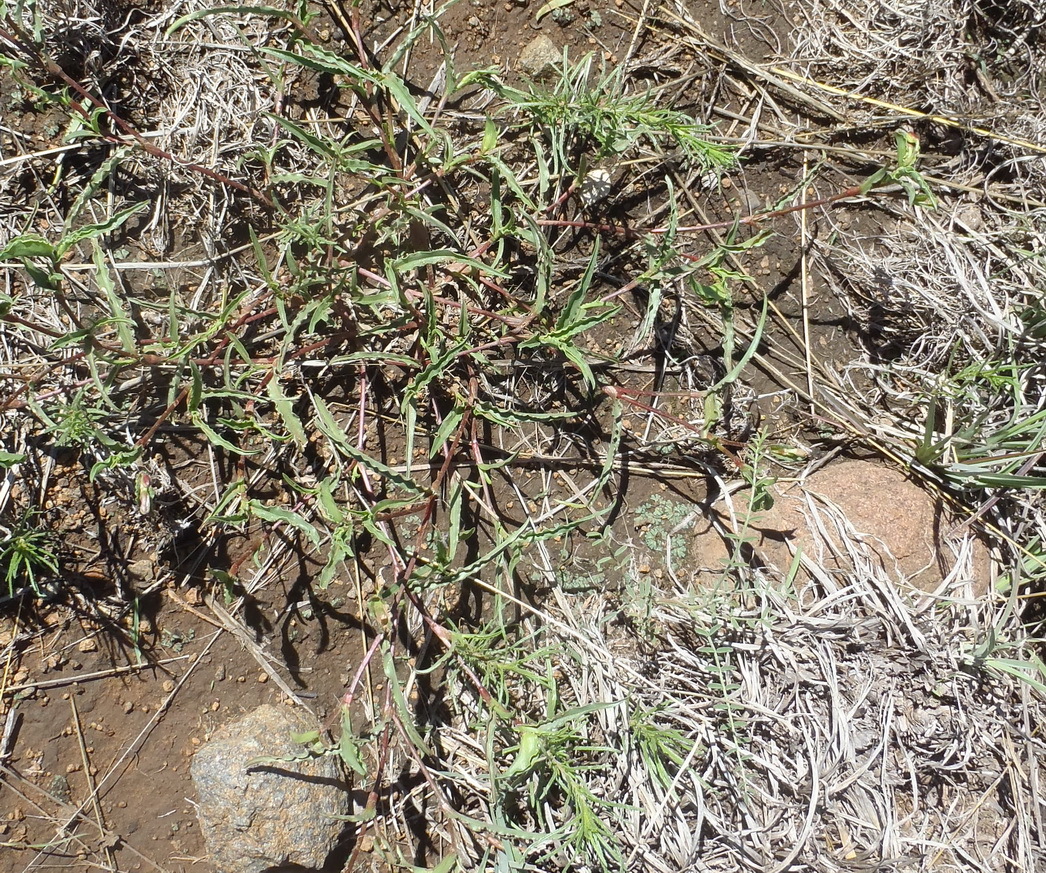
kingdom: Plantae
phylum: Tracheophyta
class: Liliopsida
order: Commelinales
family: Commelinaceae
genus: Commelina
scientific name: Commelina africana
